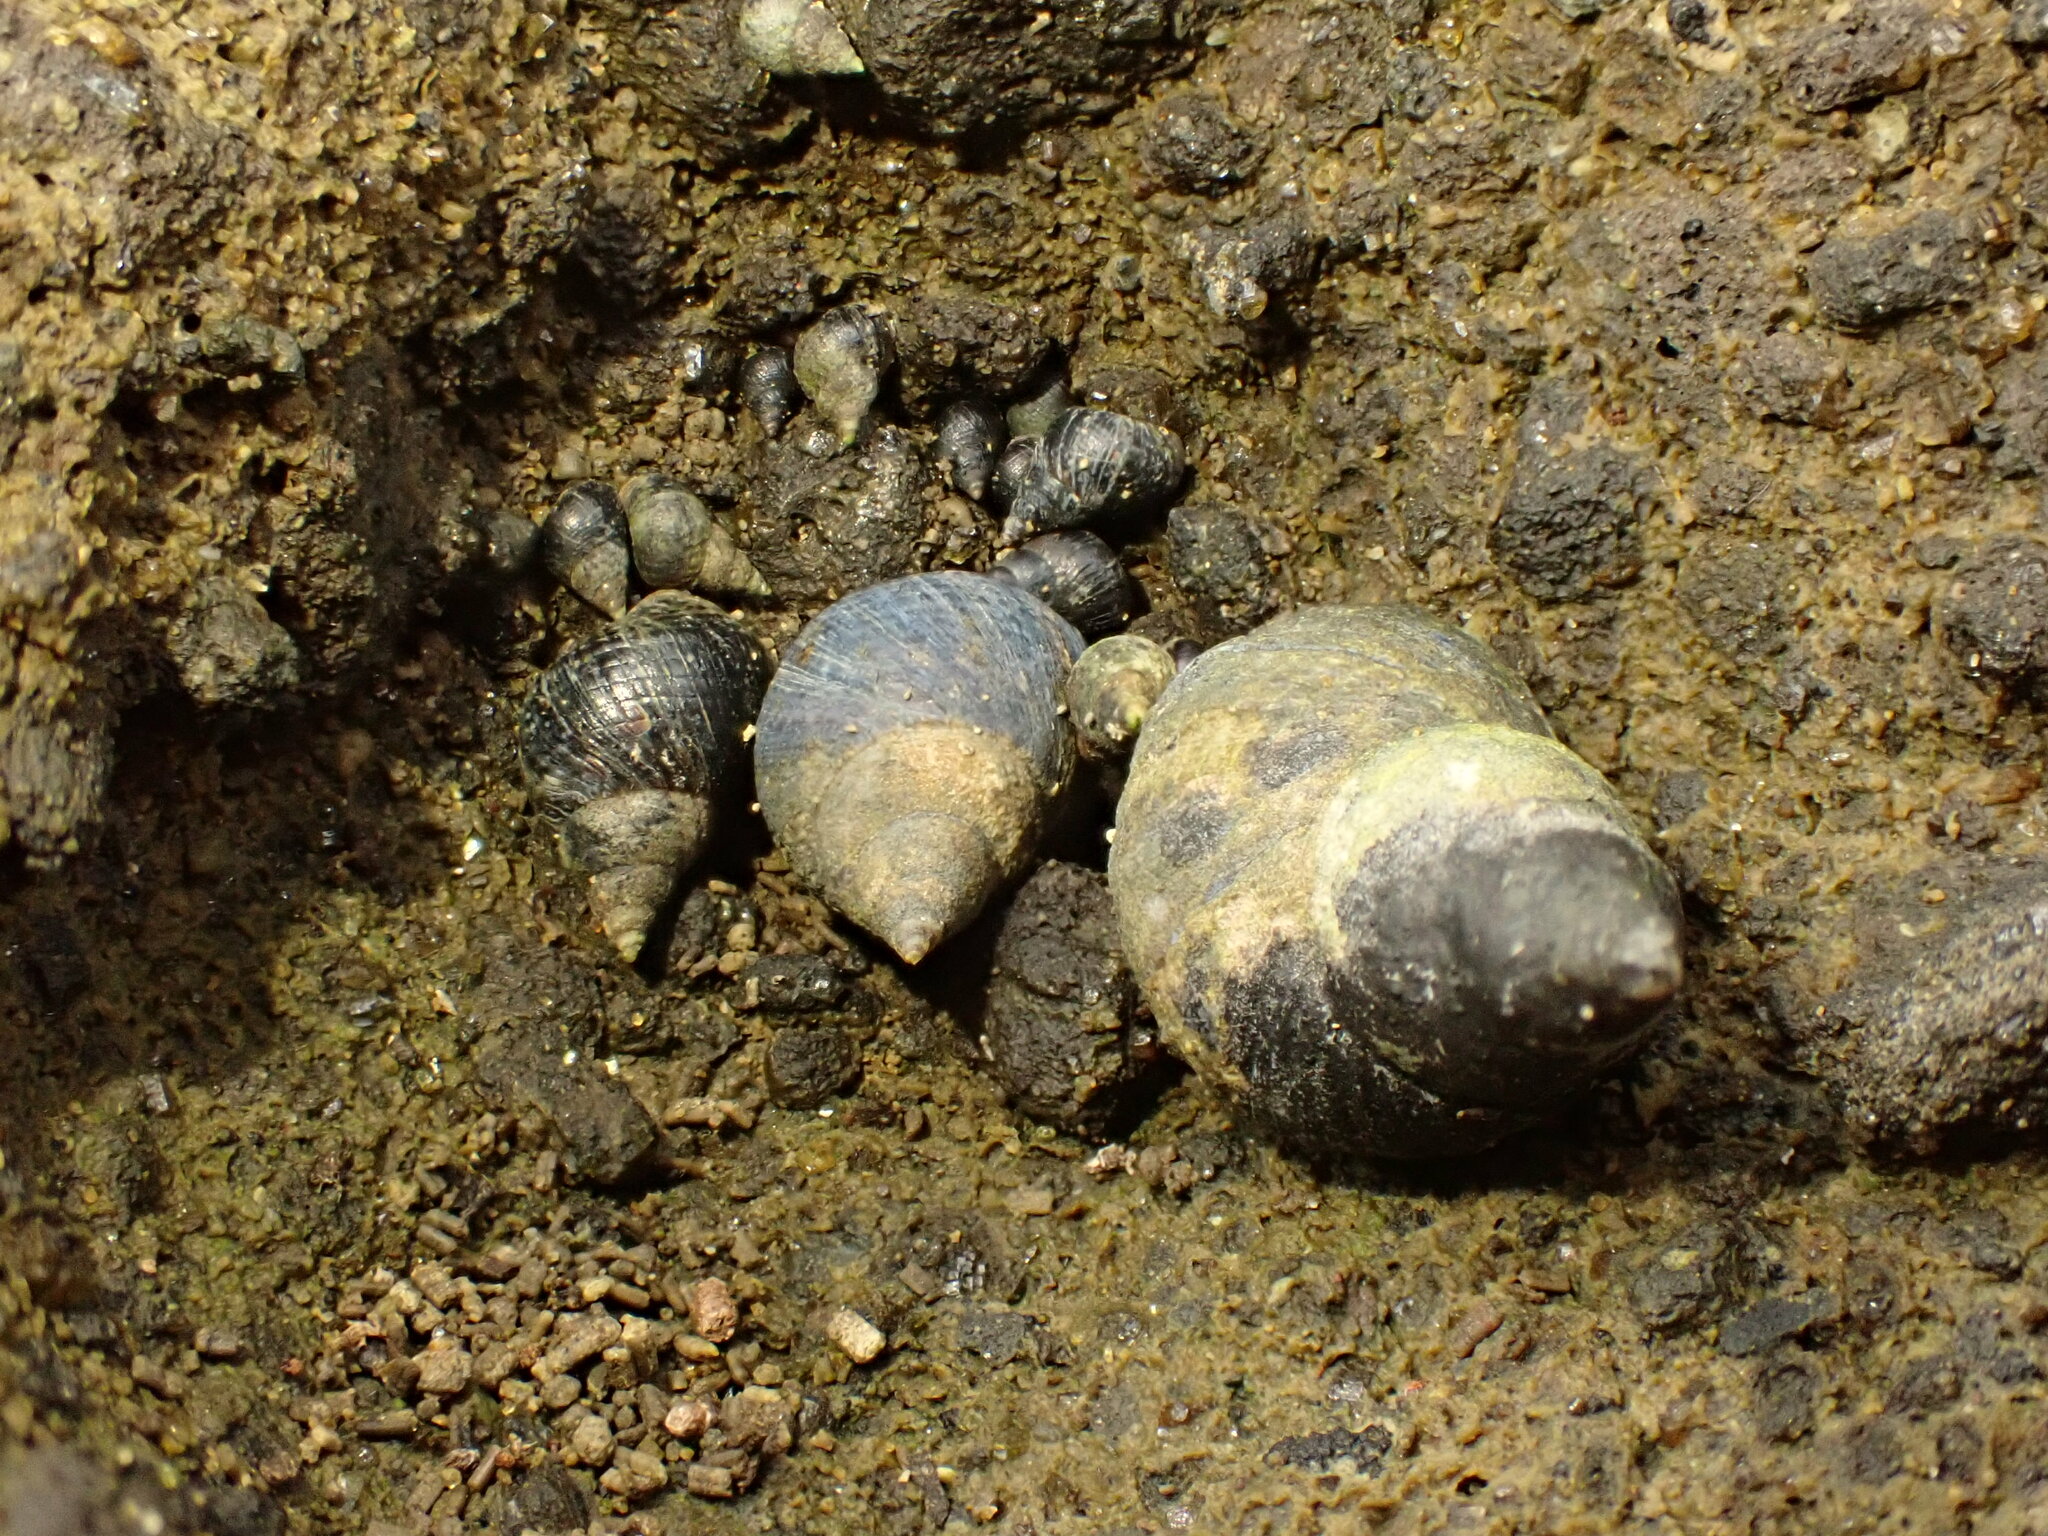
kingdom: Animalia
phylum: Mollusca
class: Gastropoda
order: Littorinimorpha
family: Littorinidae
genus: Austrolittorina
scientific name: Austrolittorina cincta
